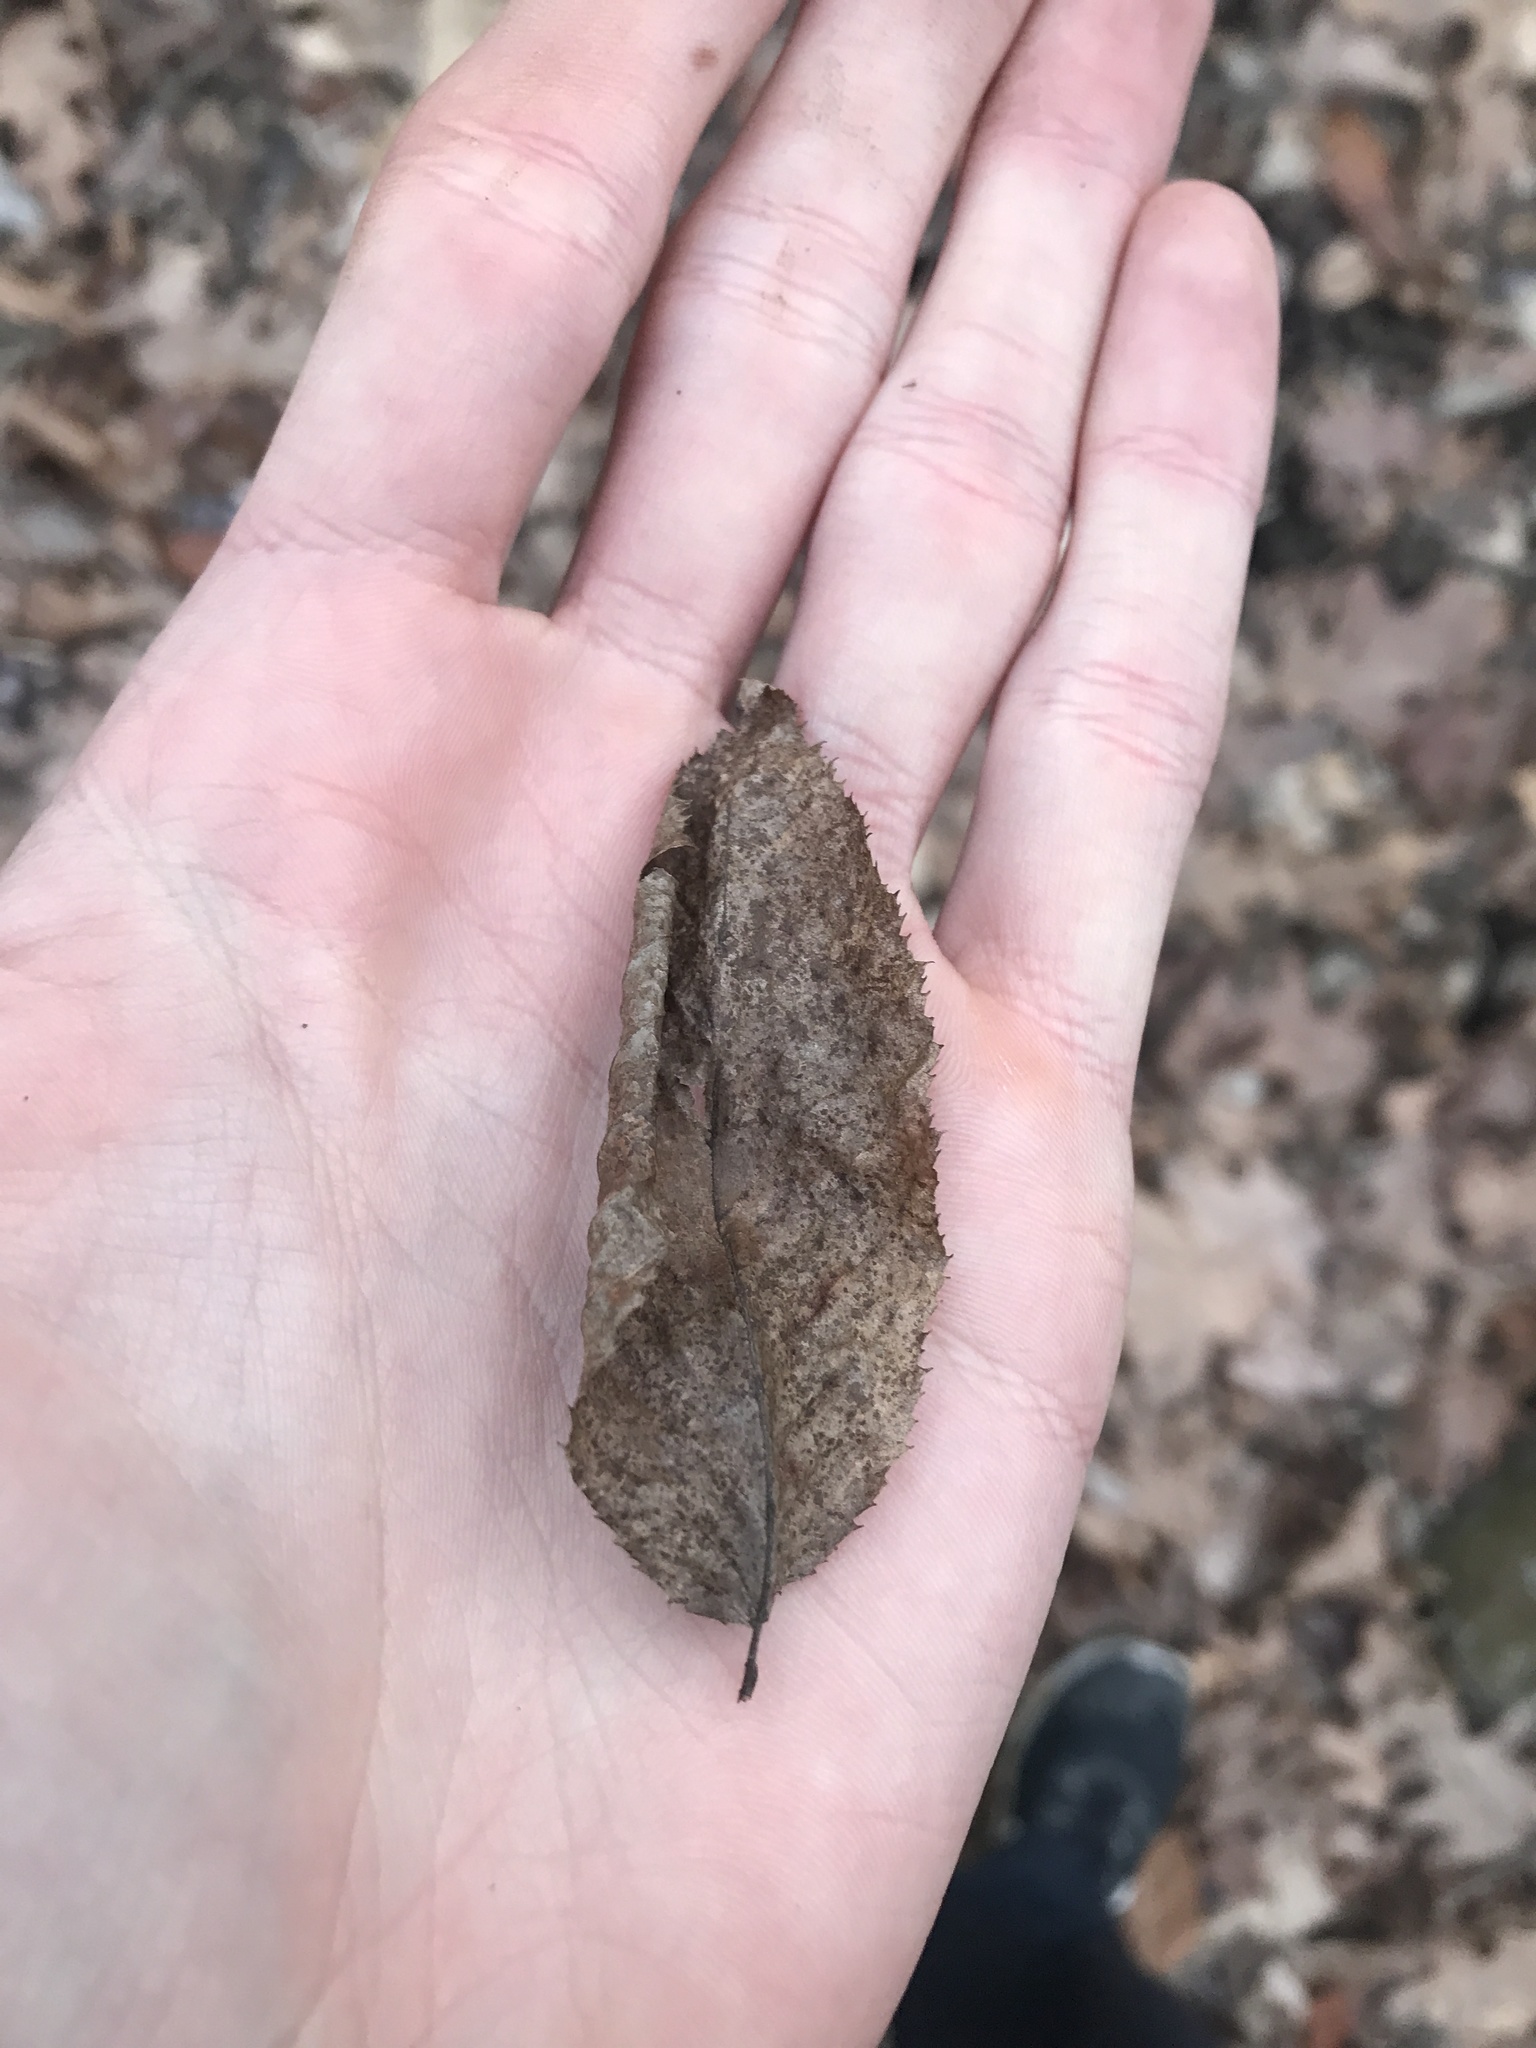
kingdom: Plantae
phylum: Tracheophyta
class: Magnoliopsida
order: Fagales
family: Betulaceae
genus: Carpinus
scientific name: Carpinus caroliniana
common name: American hornbeam
